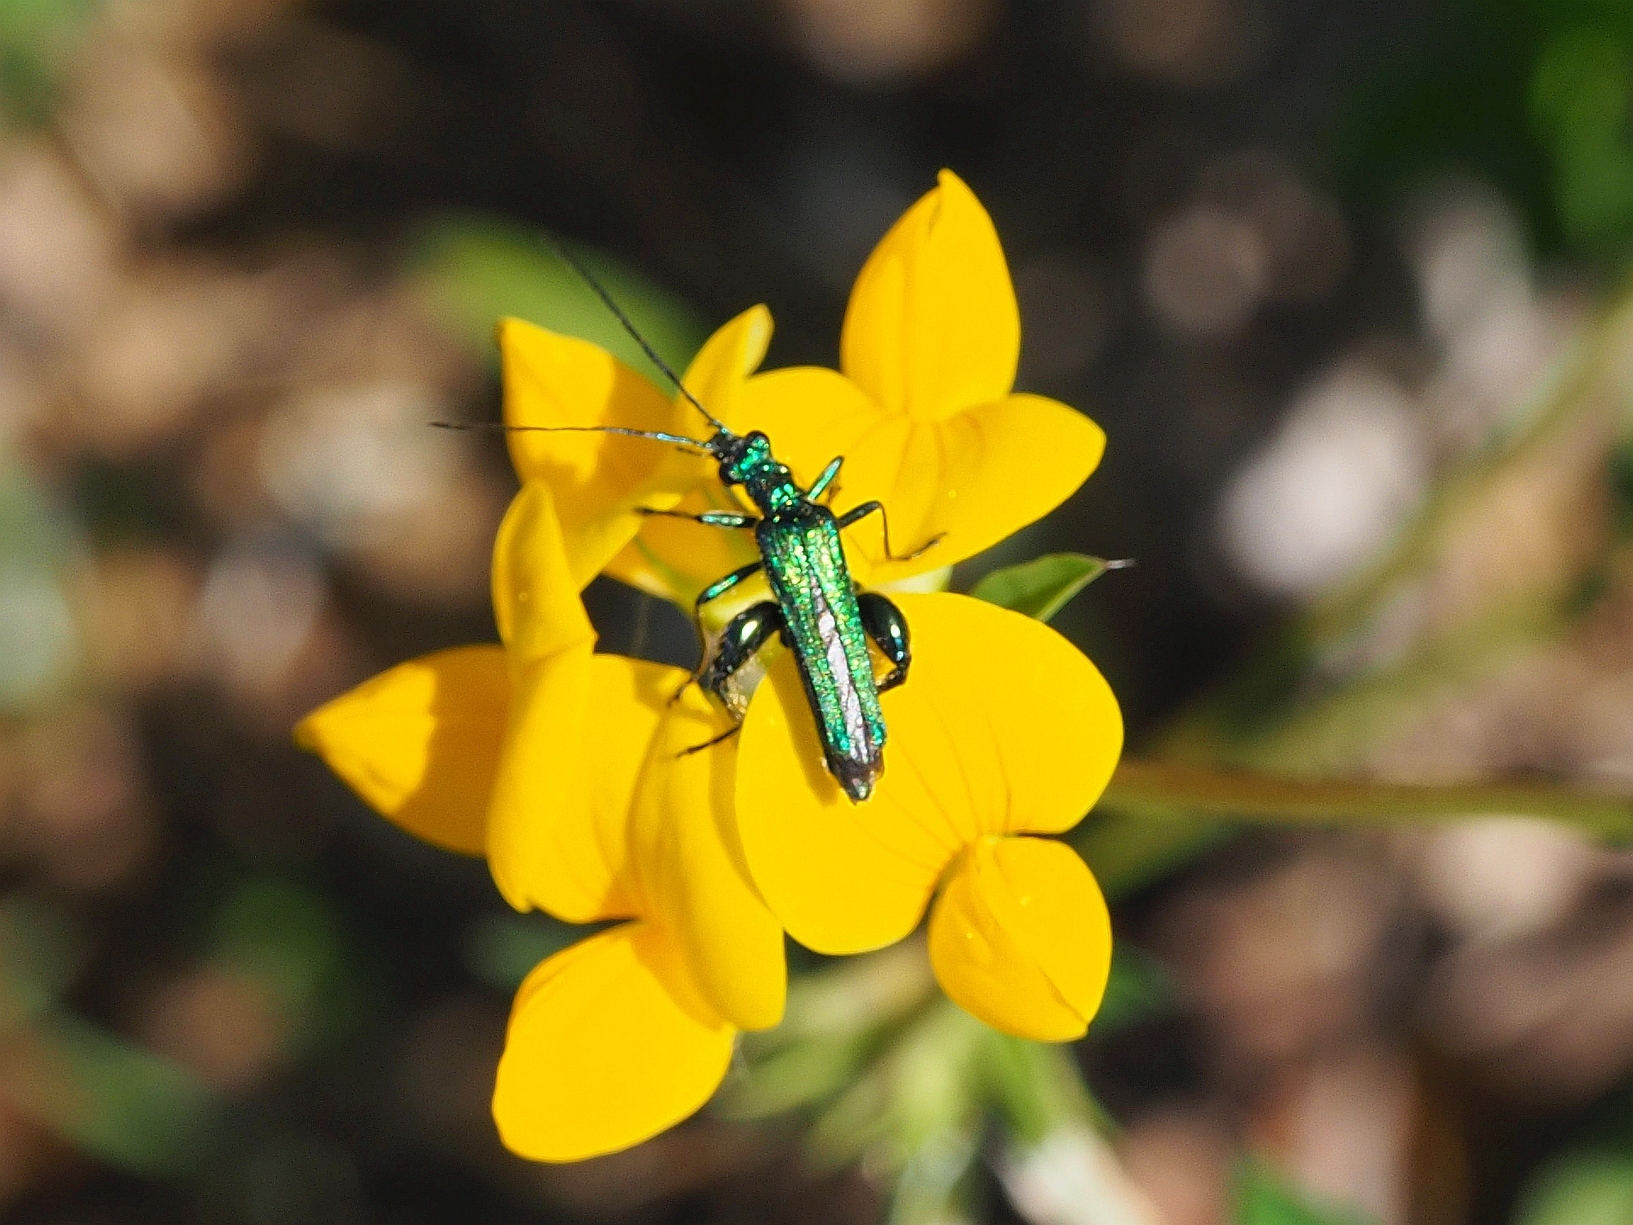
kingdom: Animalia
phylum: Arthropoda
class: Insecta
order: Coleoptera
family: Oedemeridae
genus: Oedemera
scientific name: Oedemera nobilis
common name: Swollen-thighed beetle
